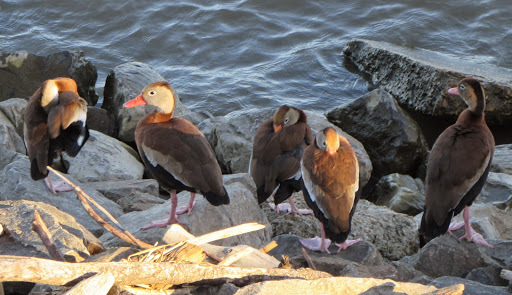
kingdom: Animalia
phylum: Chordata
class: Aves
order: Anseriformes
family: Anatidae
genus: Dendrocygna
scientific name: Dendrocygna autumnalis
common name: Black-bellied whistling duck
